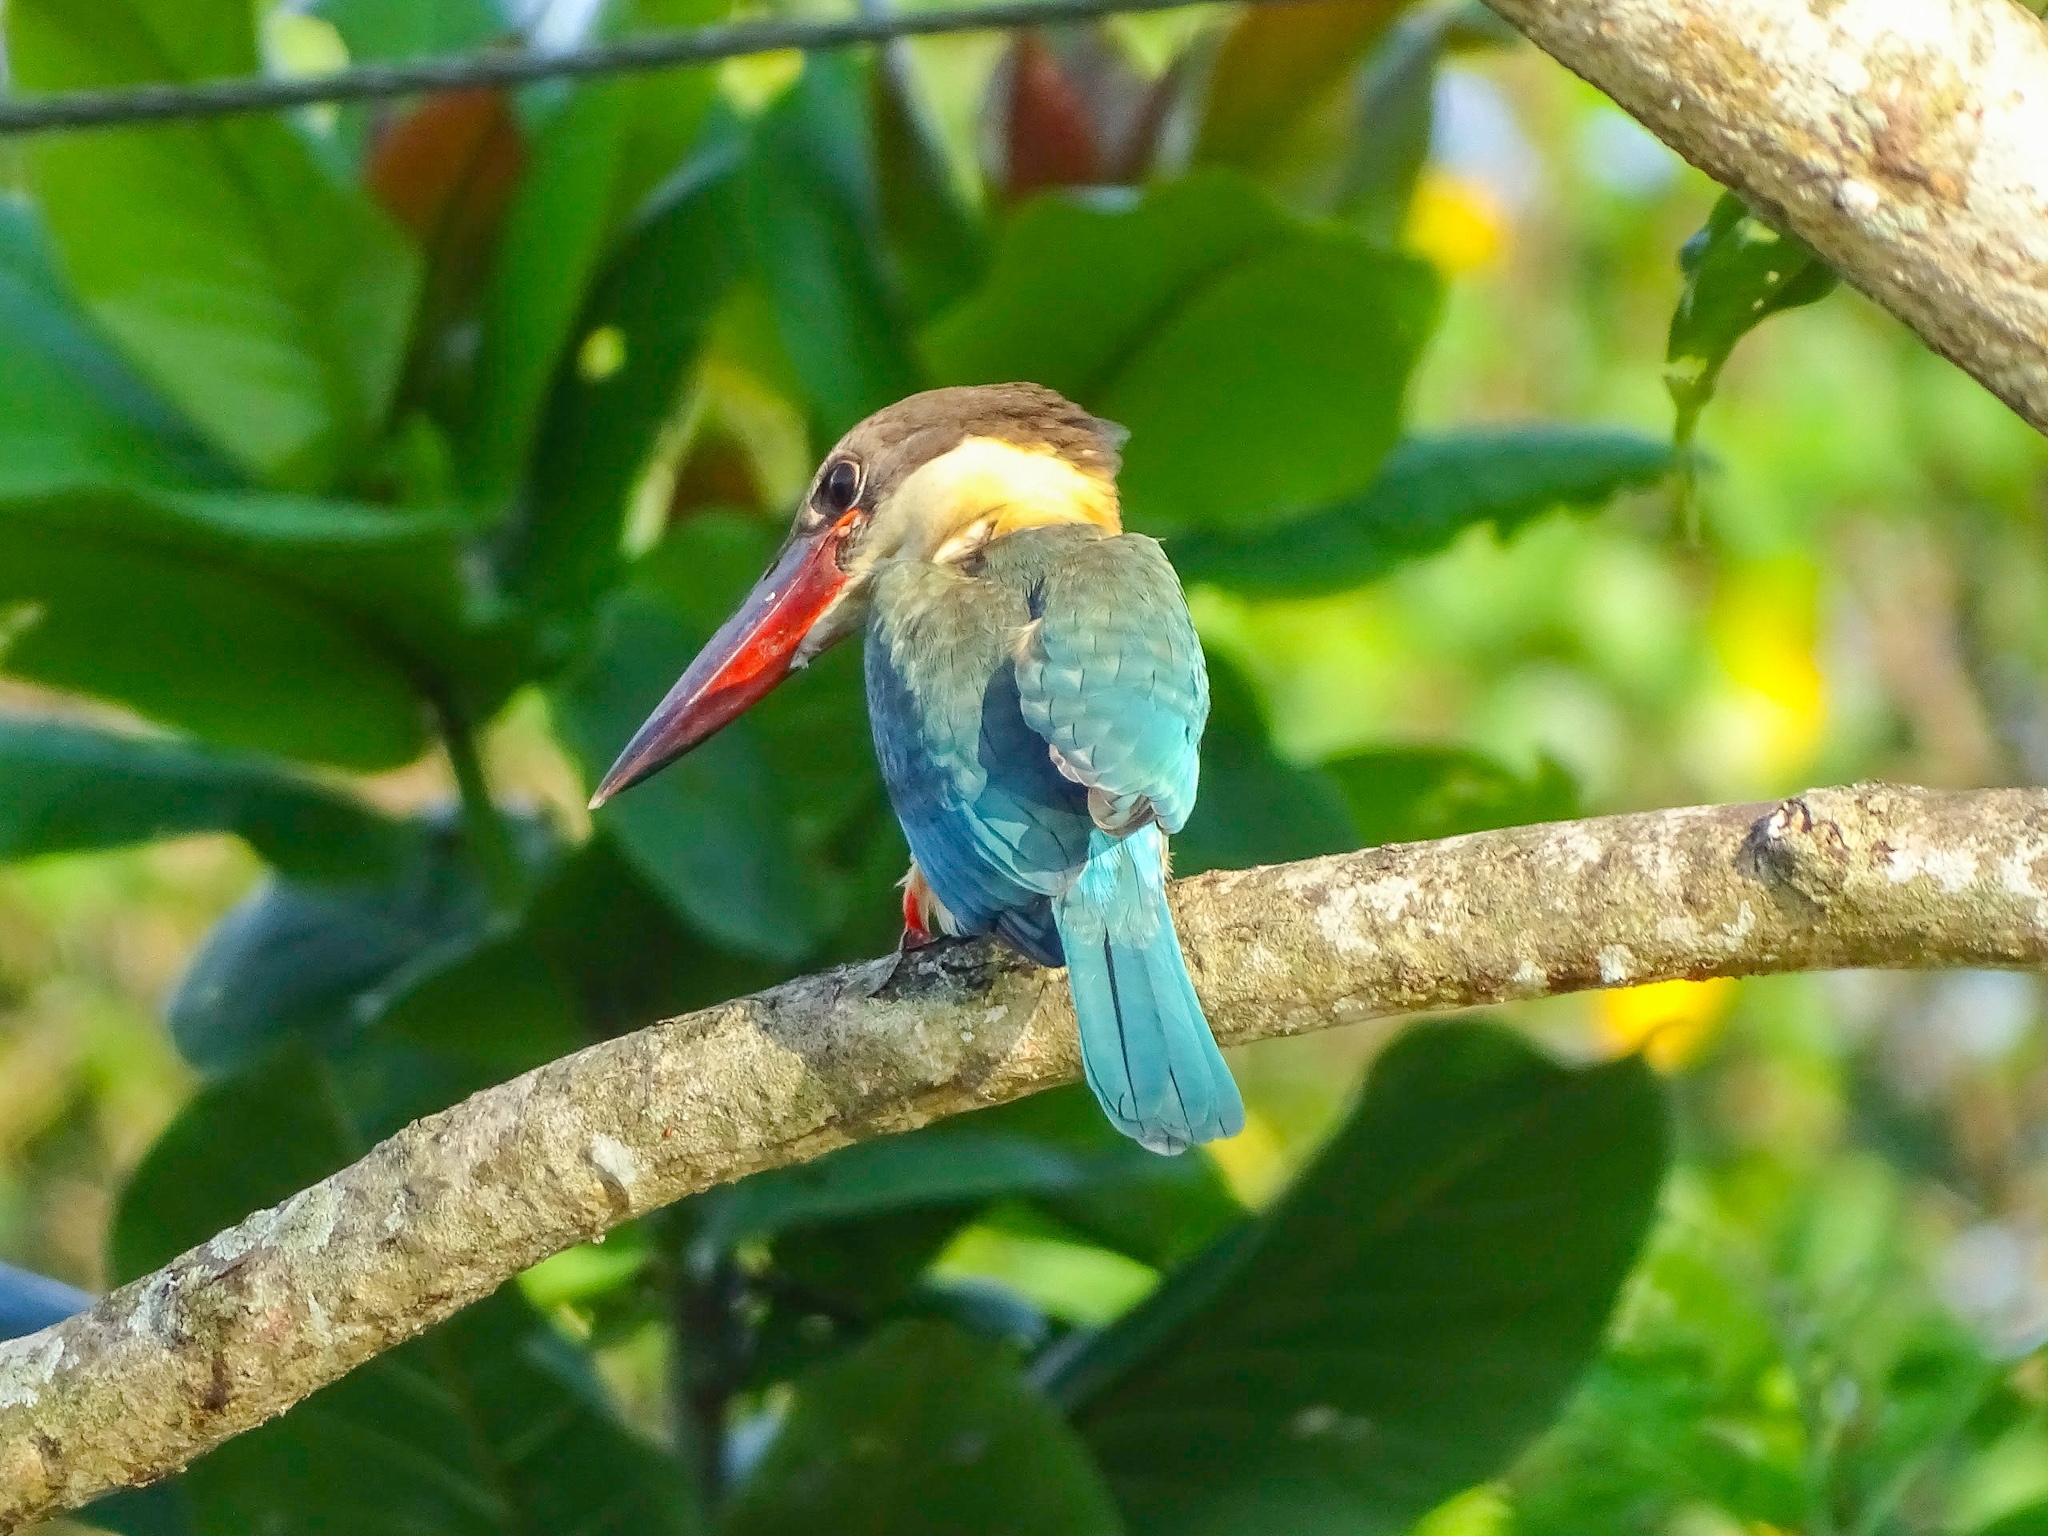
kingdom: Animalia
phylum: Chordata
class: Aves
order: Coraciiformes
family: Alcedinidae
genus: Pelargopsis
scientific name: Pelargopsis capensis
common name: Stork-billed kingfisher
